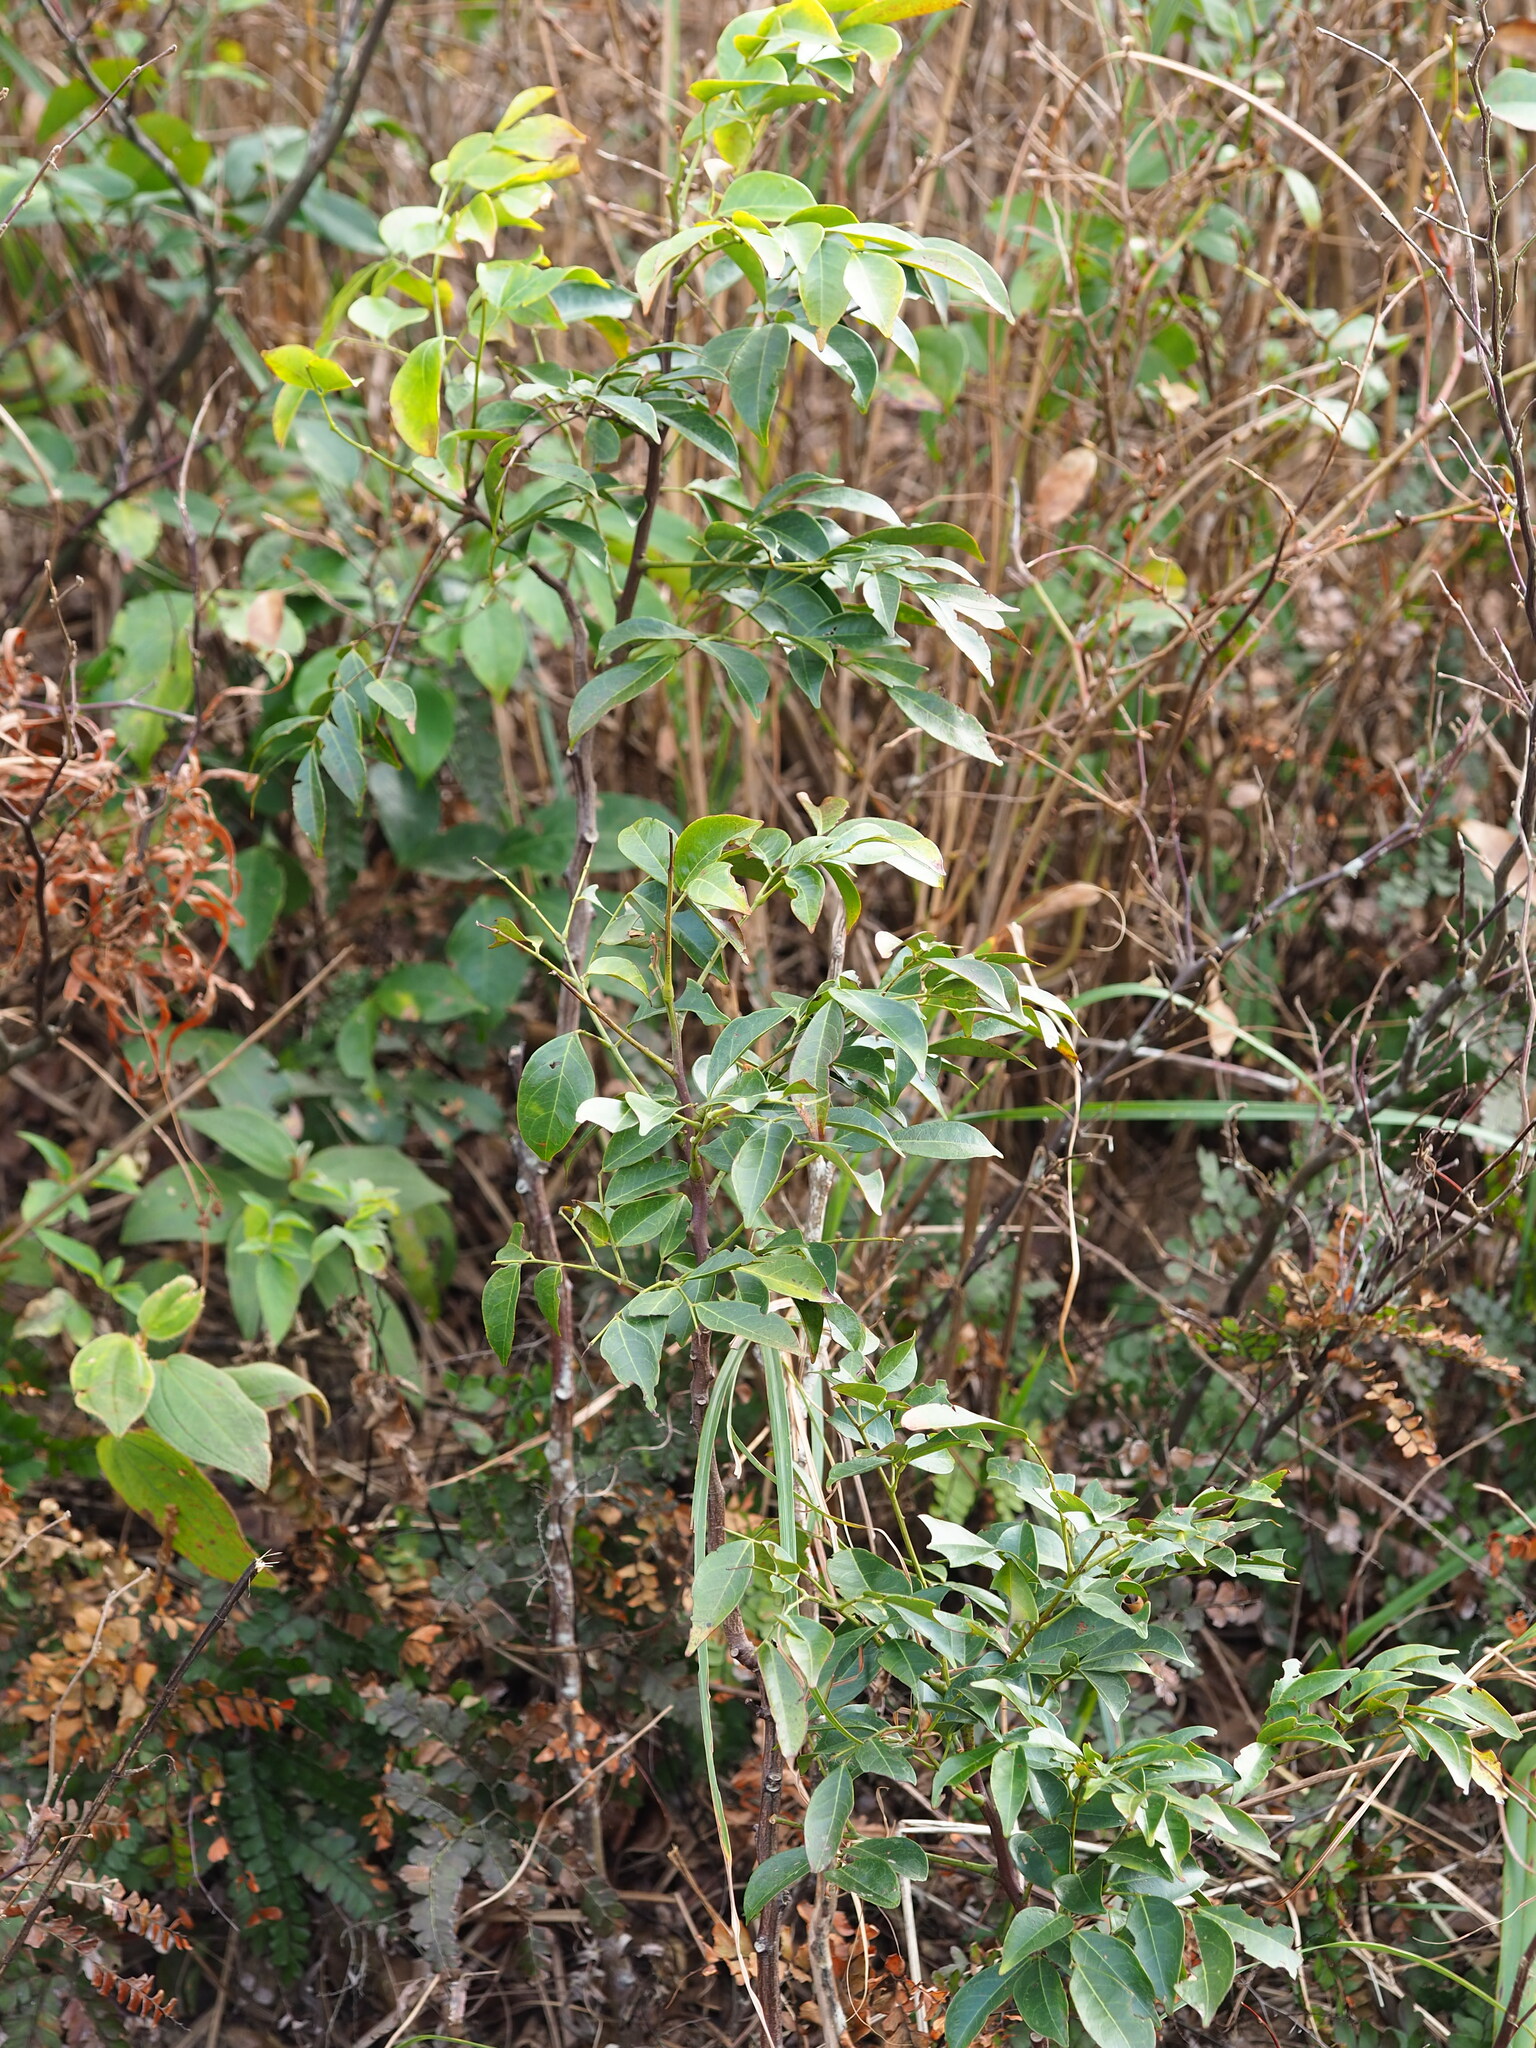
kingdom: Plantae
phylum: Tracheophyta
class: Magnoliopsida
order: Fabales
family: Fabaceae
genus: Archidendron
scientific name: Archidendron lucidum
